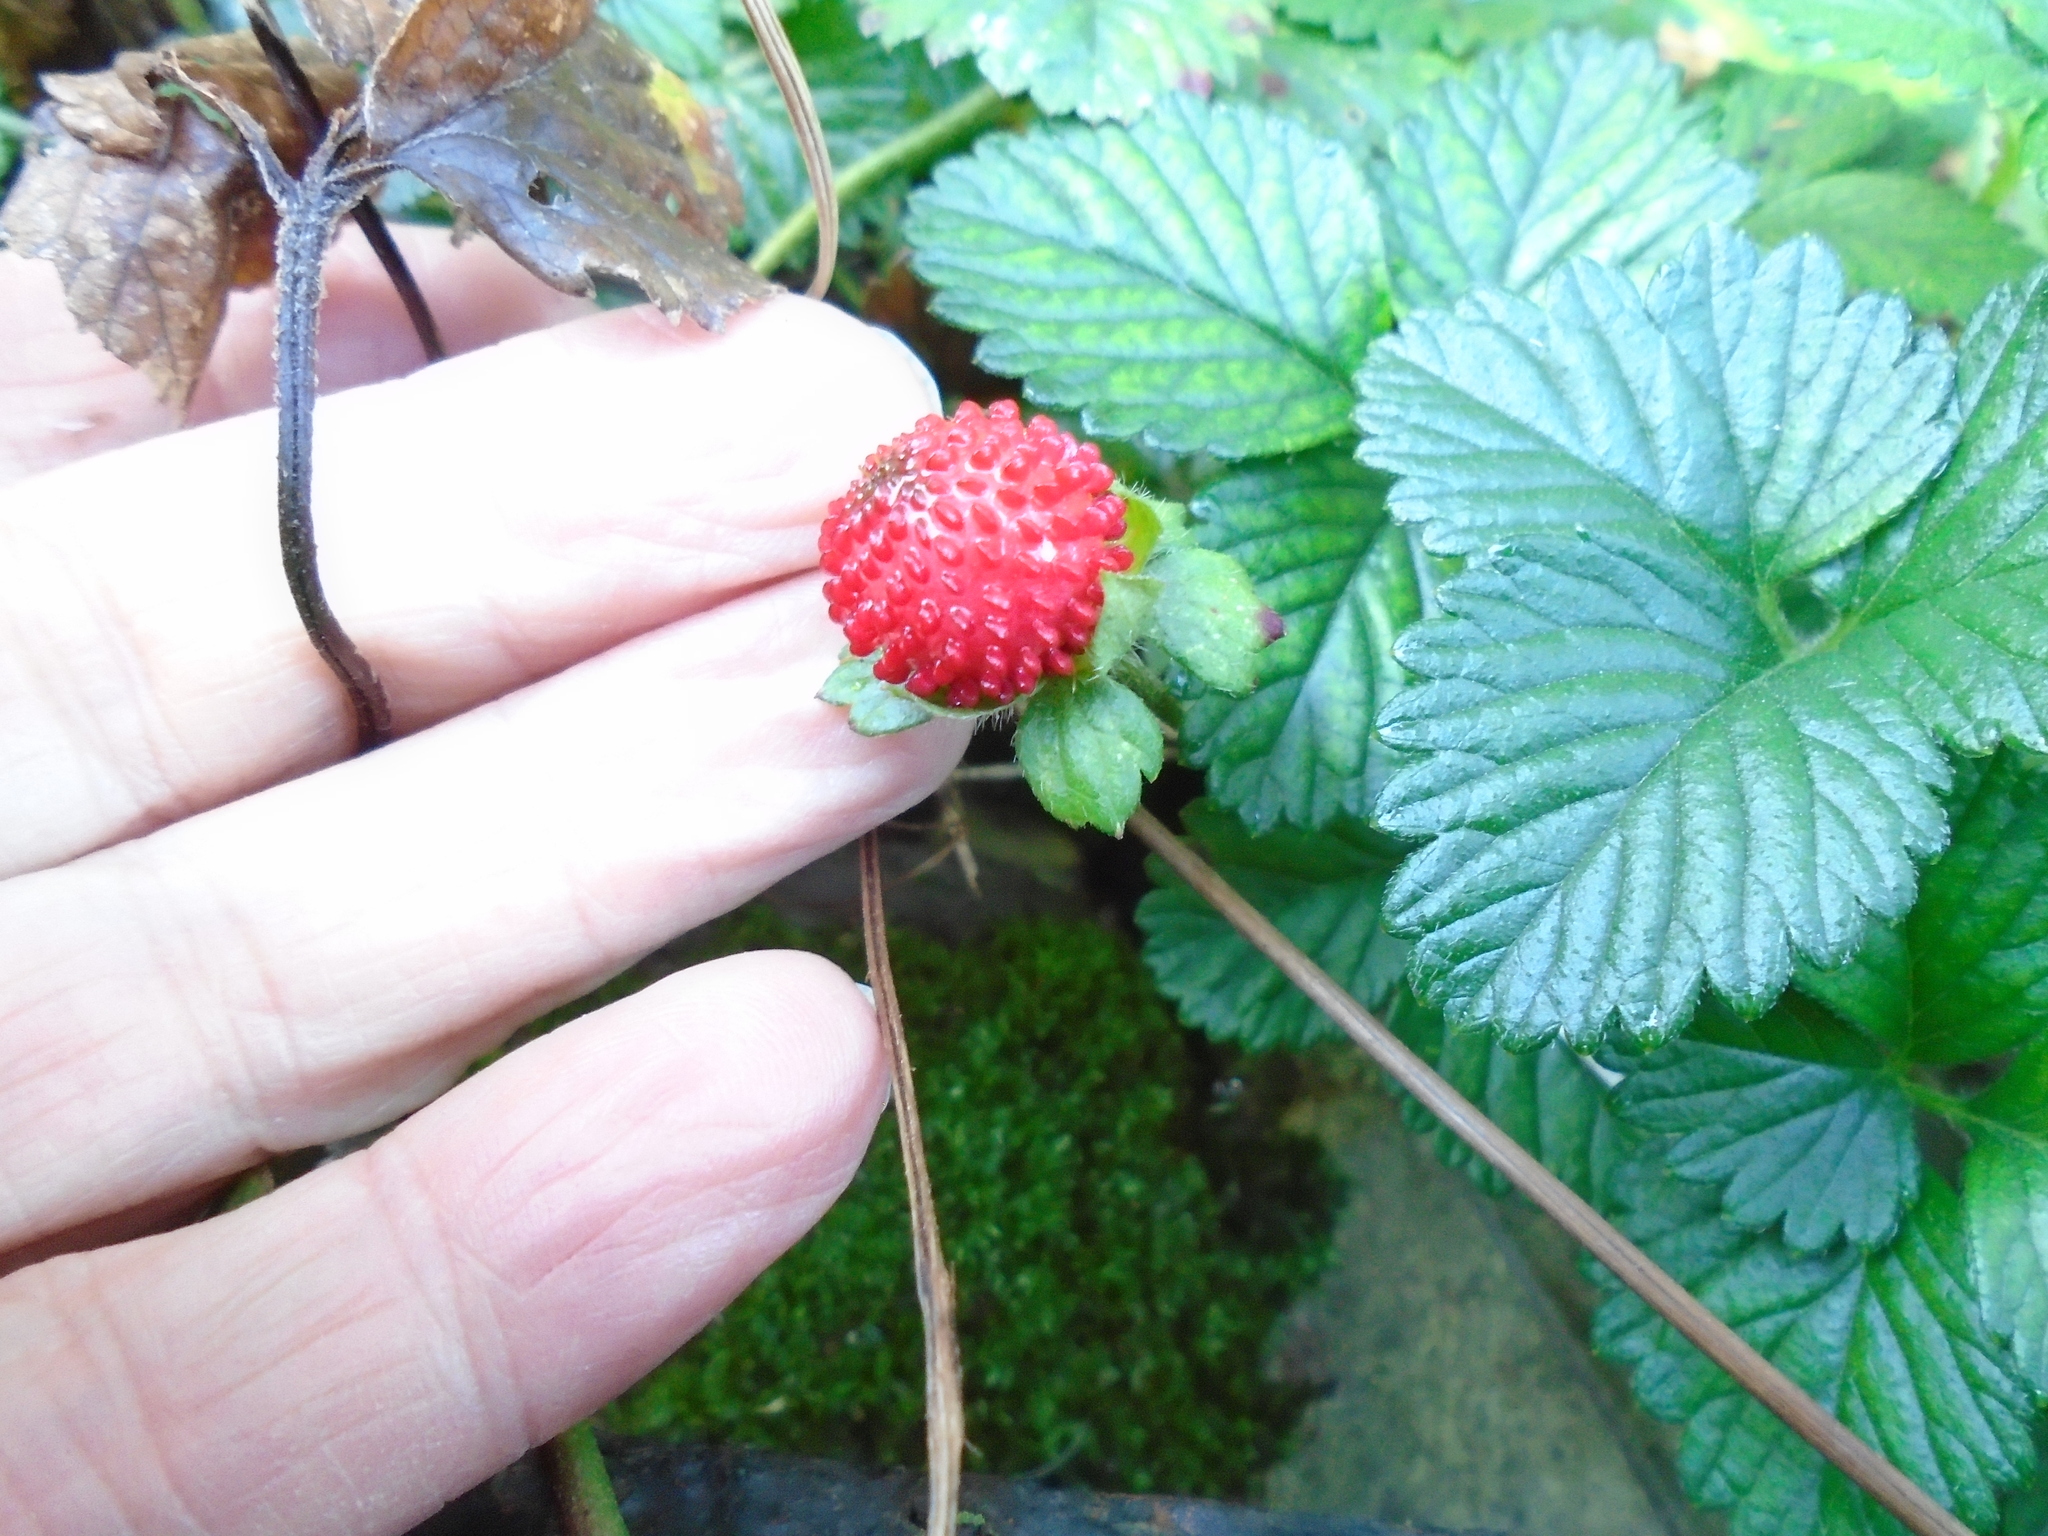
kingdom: Plantae
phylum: Tracheophyta
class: Magnoliopsida
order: Rosales
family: Rosaceae
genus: Potentilla
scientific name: Potentilla indica
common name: Yellow-flowered strawberry
